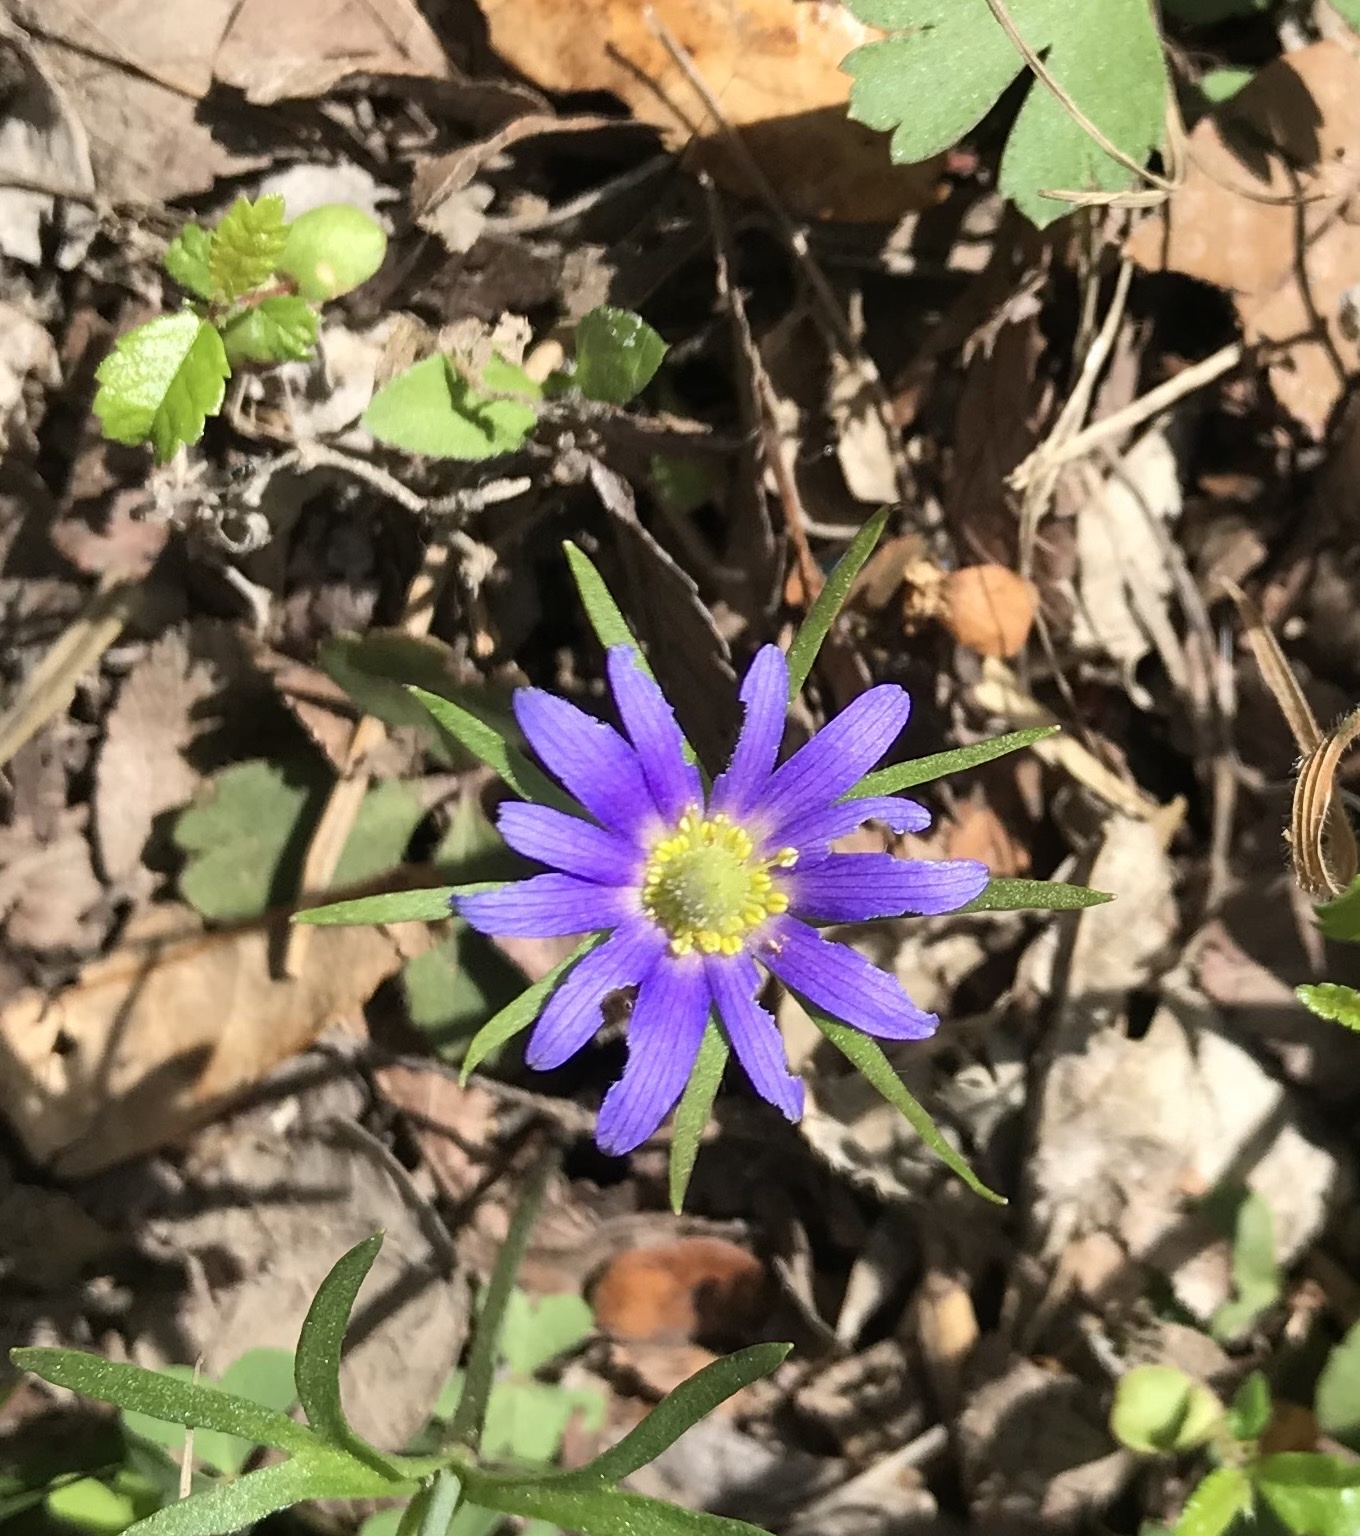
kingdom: Plantae
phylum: Tracheophyta
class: Magnoliopsida
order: Ranunculales
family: Ranunculaceae
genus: Anemone
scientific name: Anemone berlandieri
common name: Ten-petal anemone
